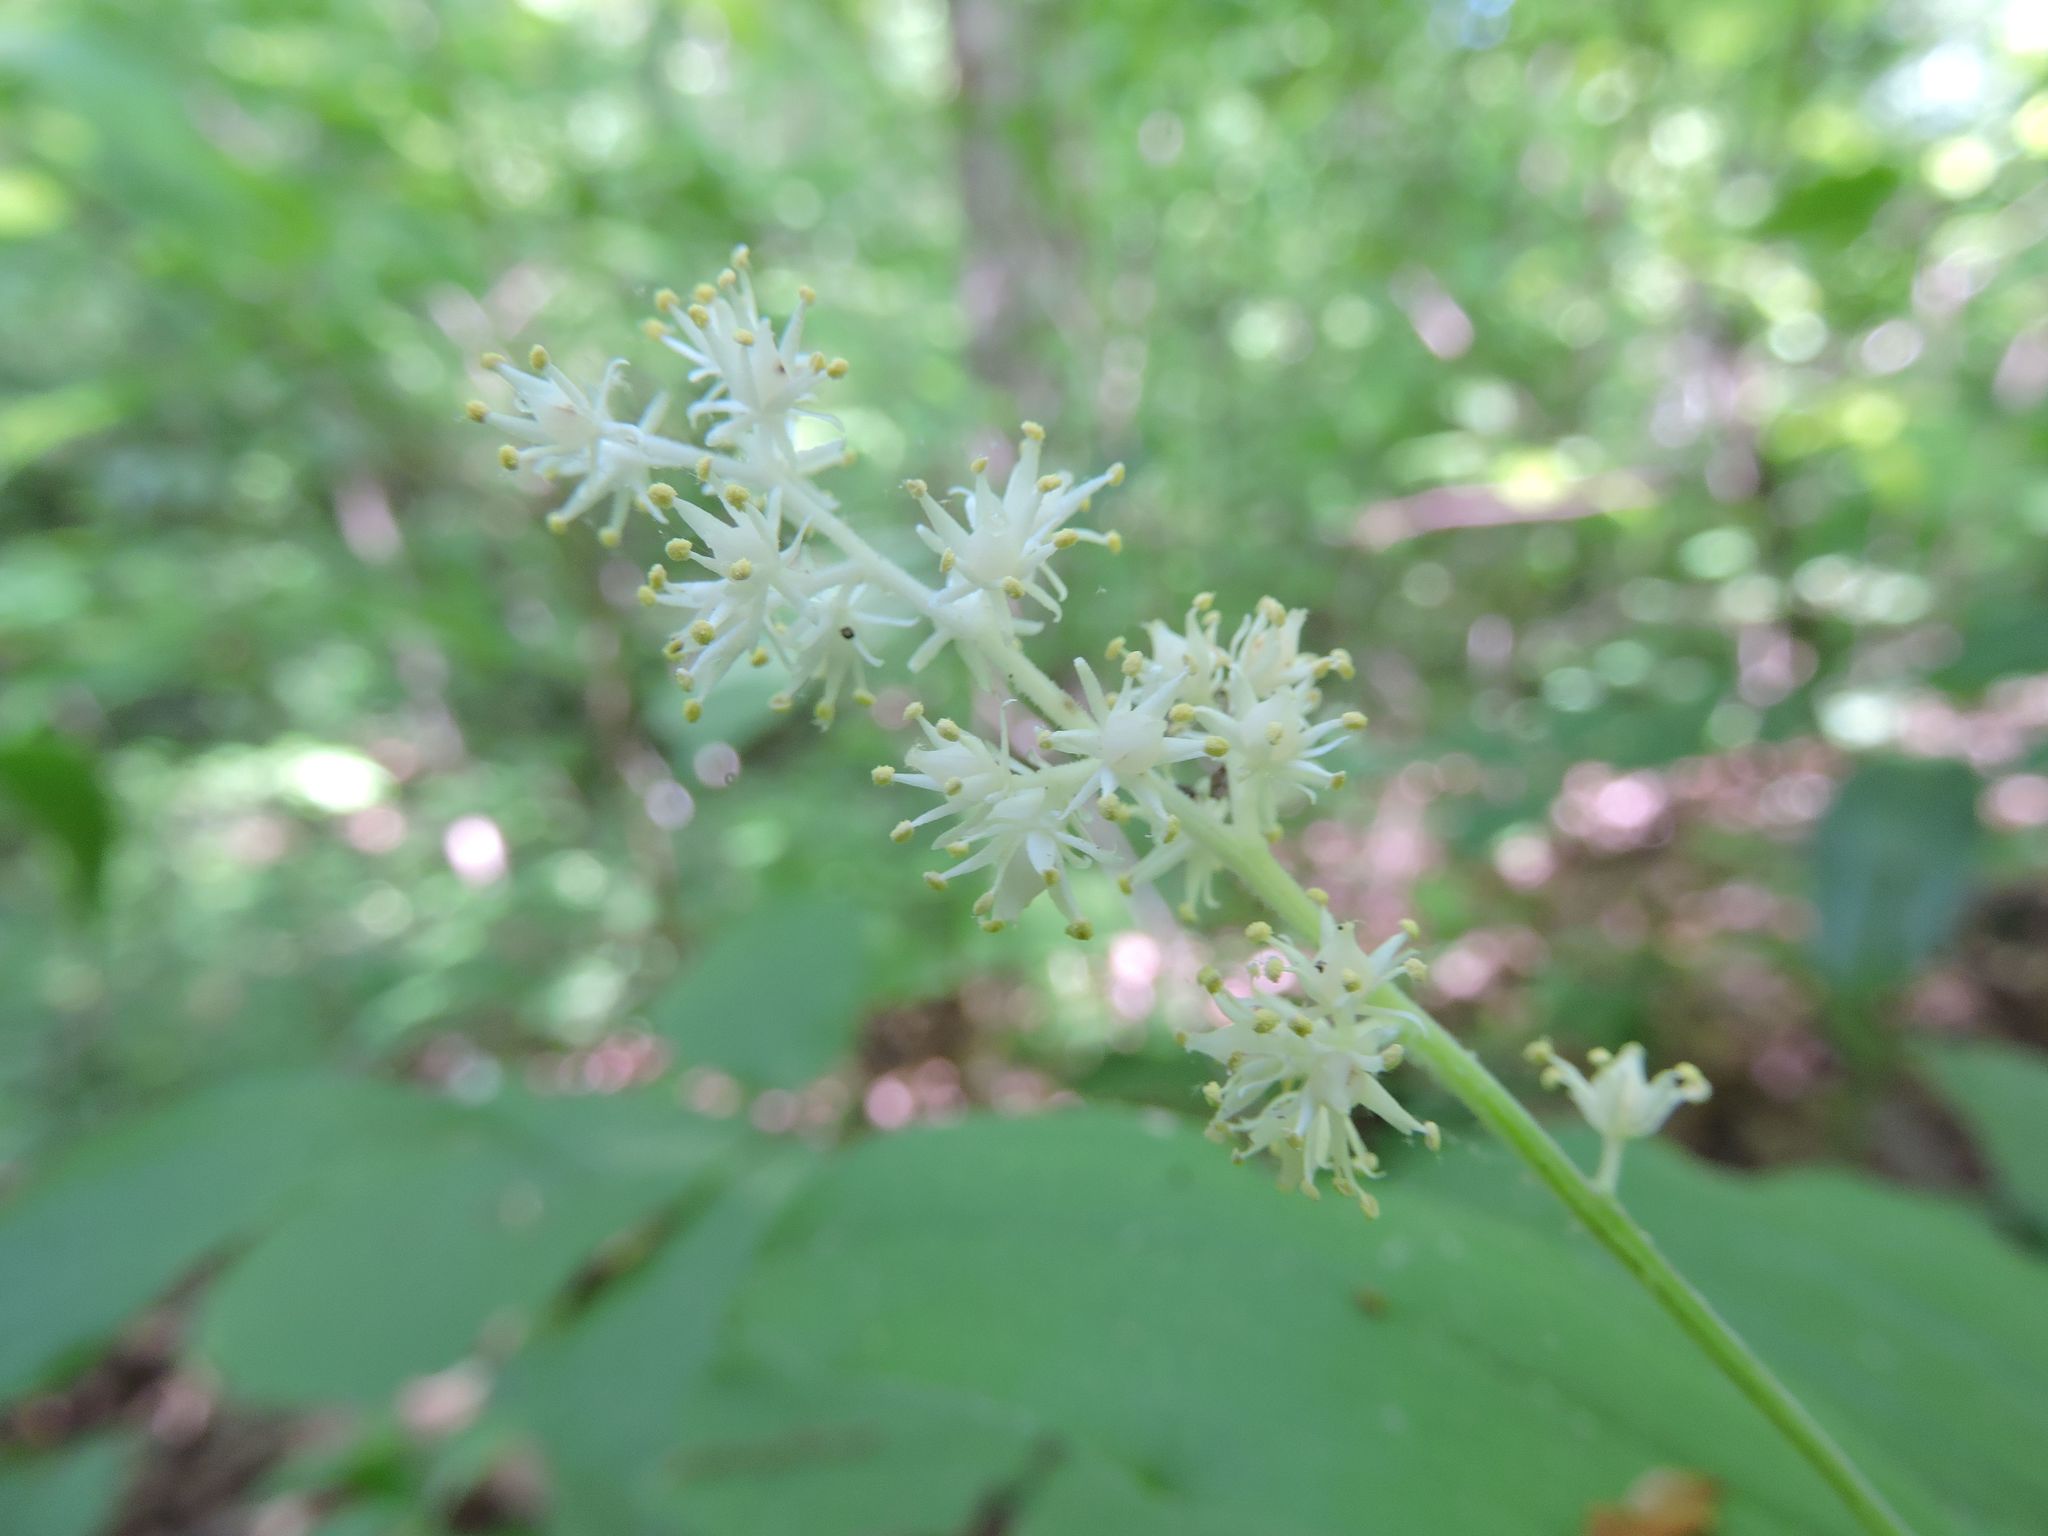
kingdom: Plantae
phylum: Tracheophyta
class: Liliopsida
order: Asparagales
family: Asparagaceae
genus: Maianthemum
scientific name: Maianthemum racemosum
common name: False spikenard
